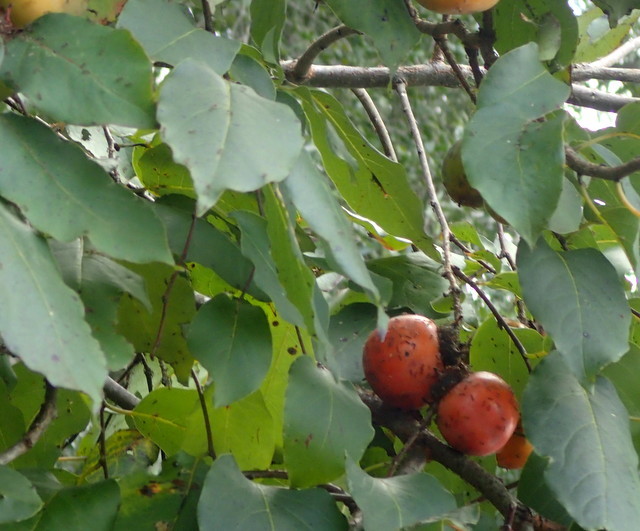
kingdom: Plantae
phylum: Tracheophyta
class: Magnoliopsida
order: Ericales
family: Ebenaceae
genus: Diospyros
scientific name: Diospyros virginiana
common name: Persimmon
